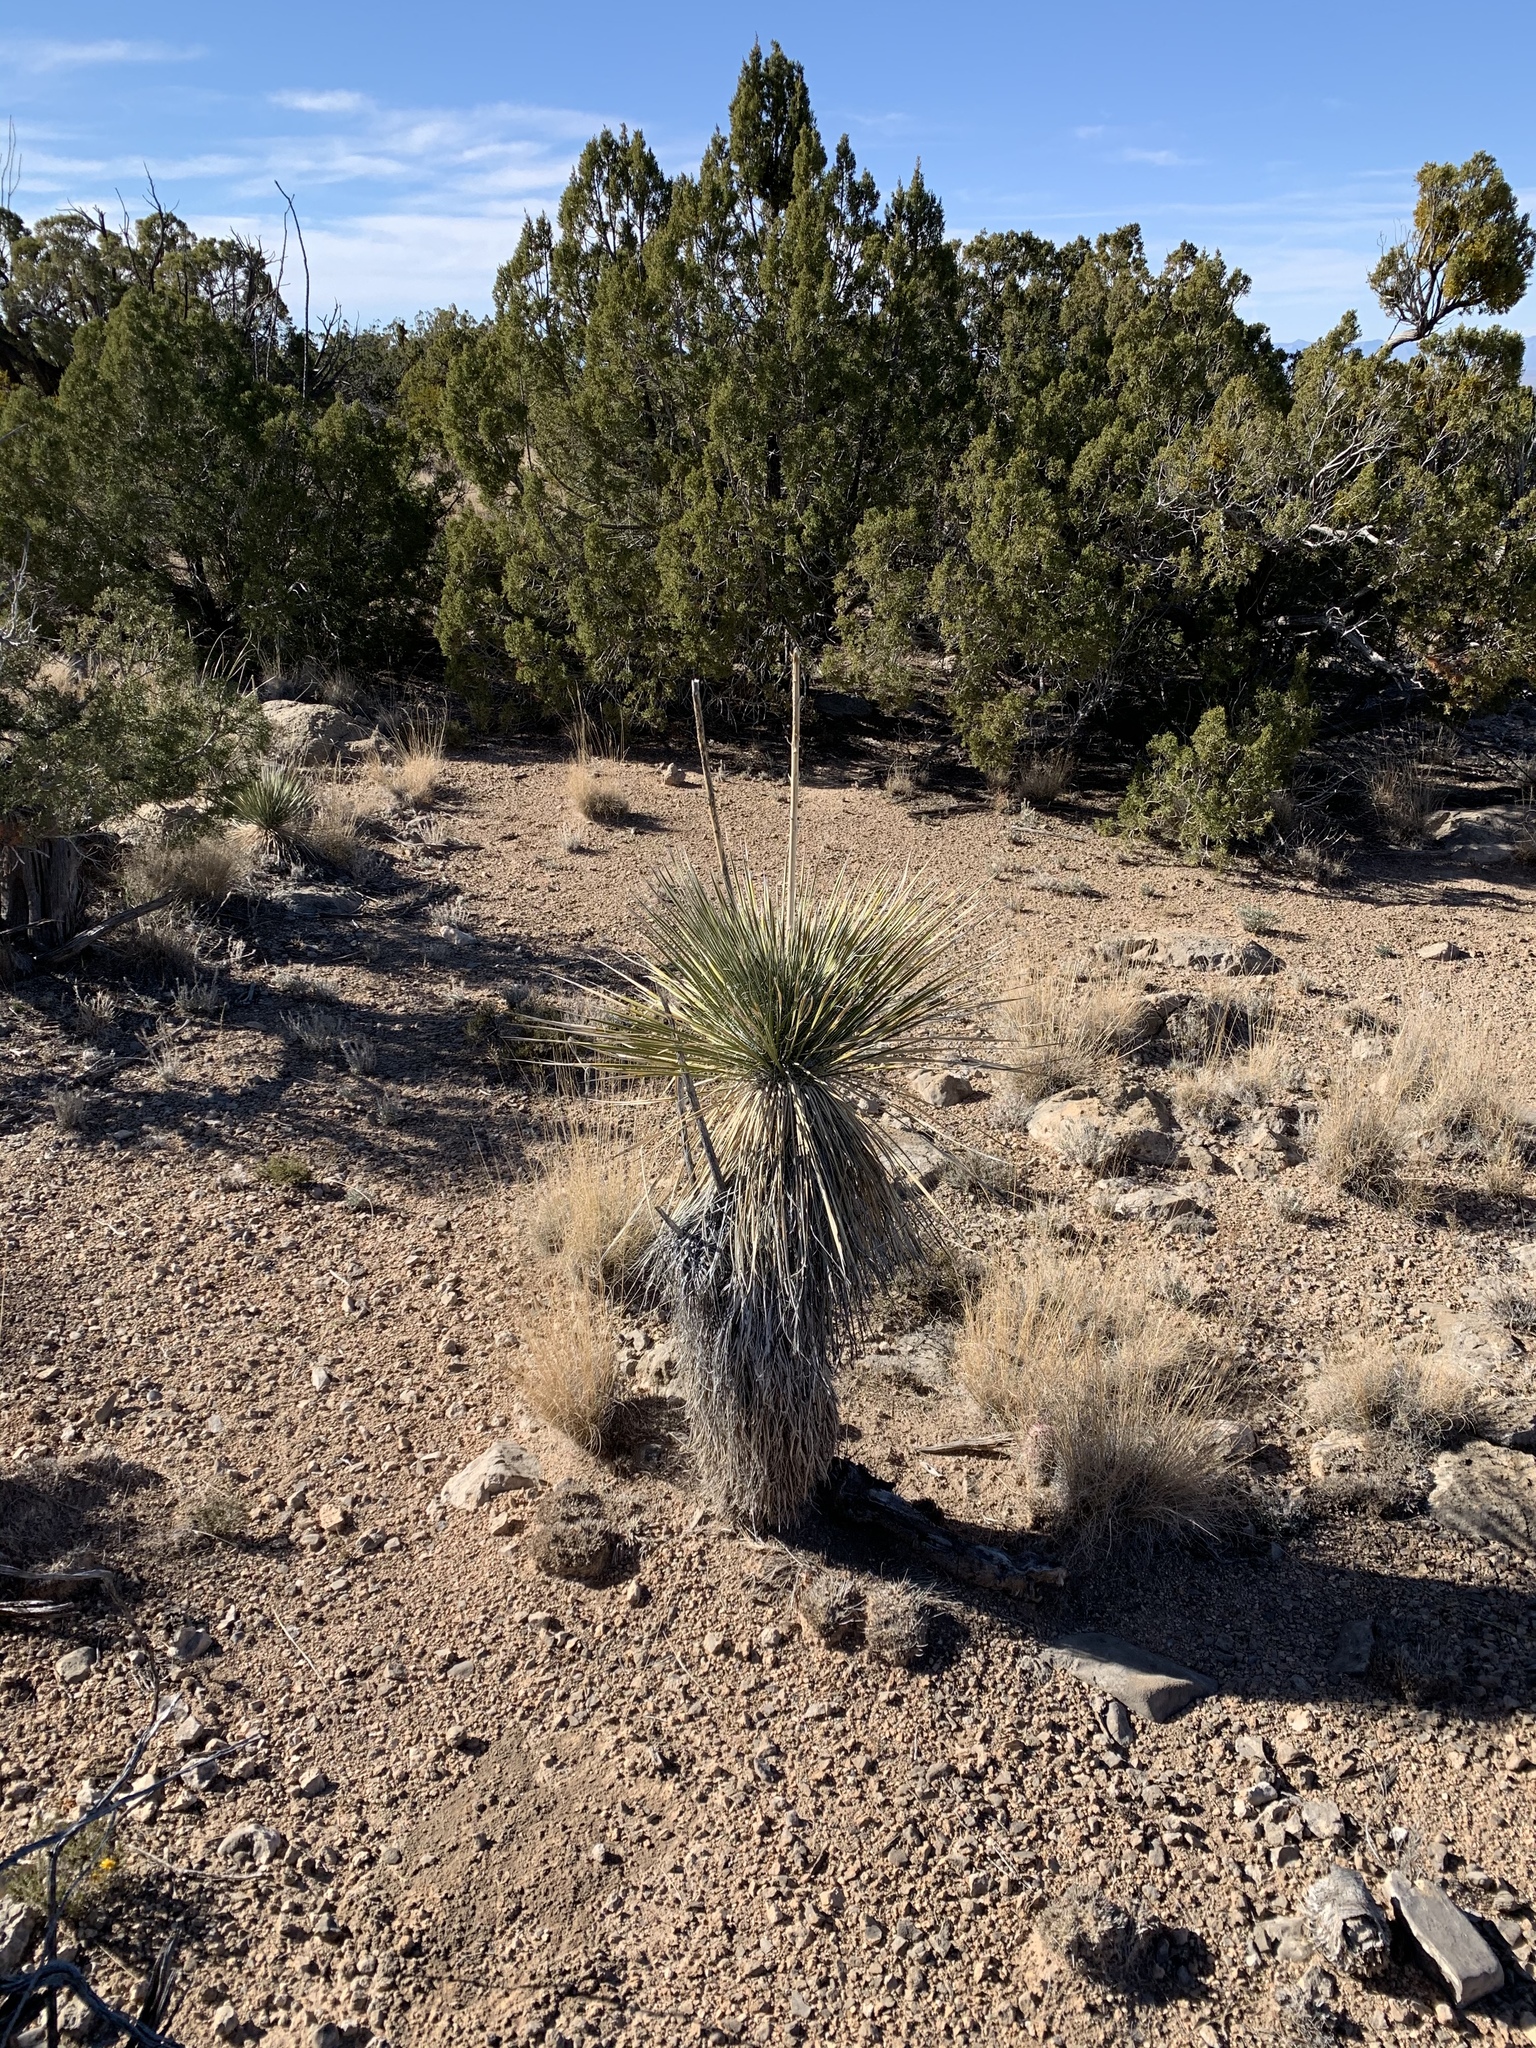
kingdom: Plantae
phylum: Tracheophyta
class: Liliopsida
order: Asparagales
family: Asparagaceae
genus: Yucca
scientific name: Yucca elata
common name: Palmella
